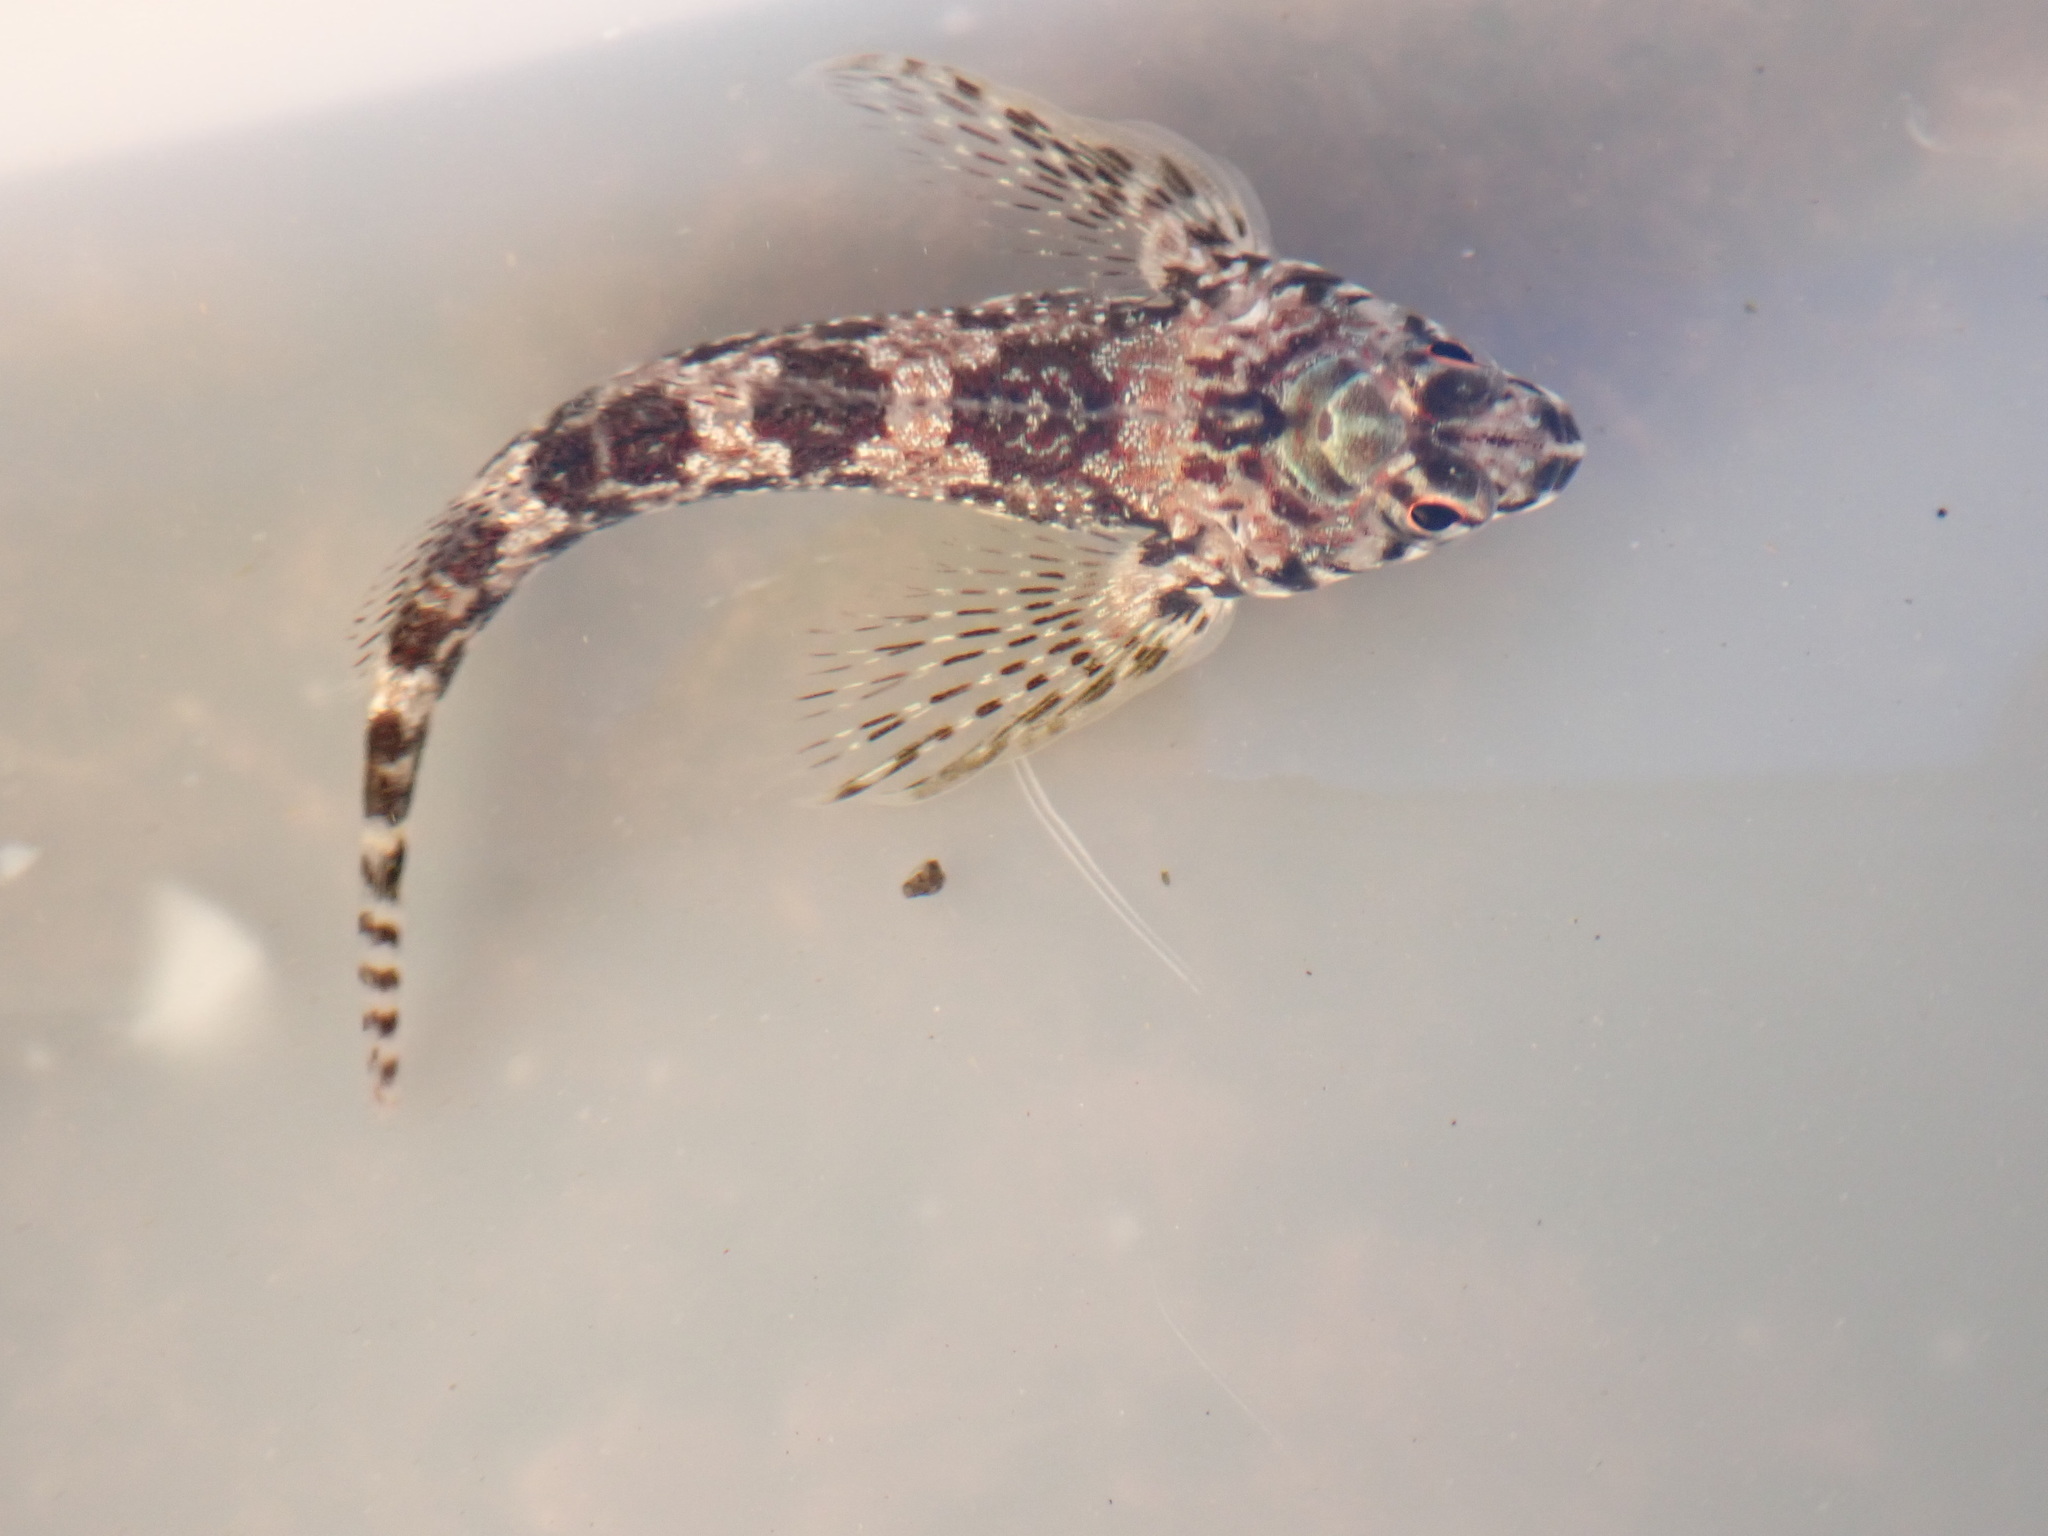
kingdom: Animalia
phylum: Chordata
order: Perciformes
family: Tripterygiidae
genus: Bellapiscis
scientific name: Bellapiscis lesleyae
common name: Mottled twister
